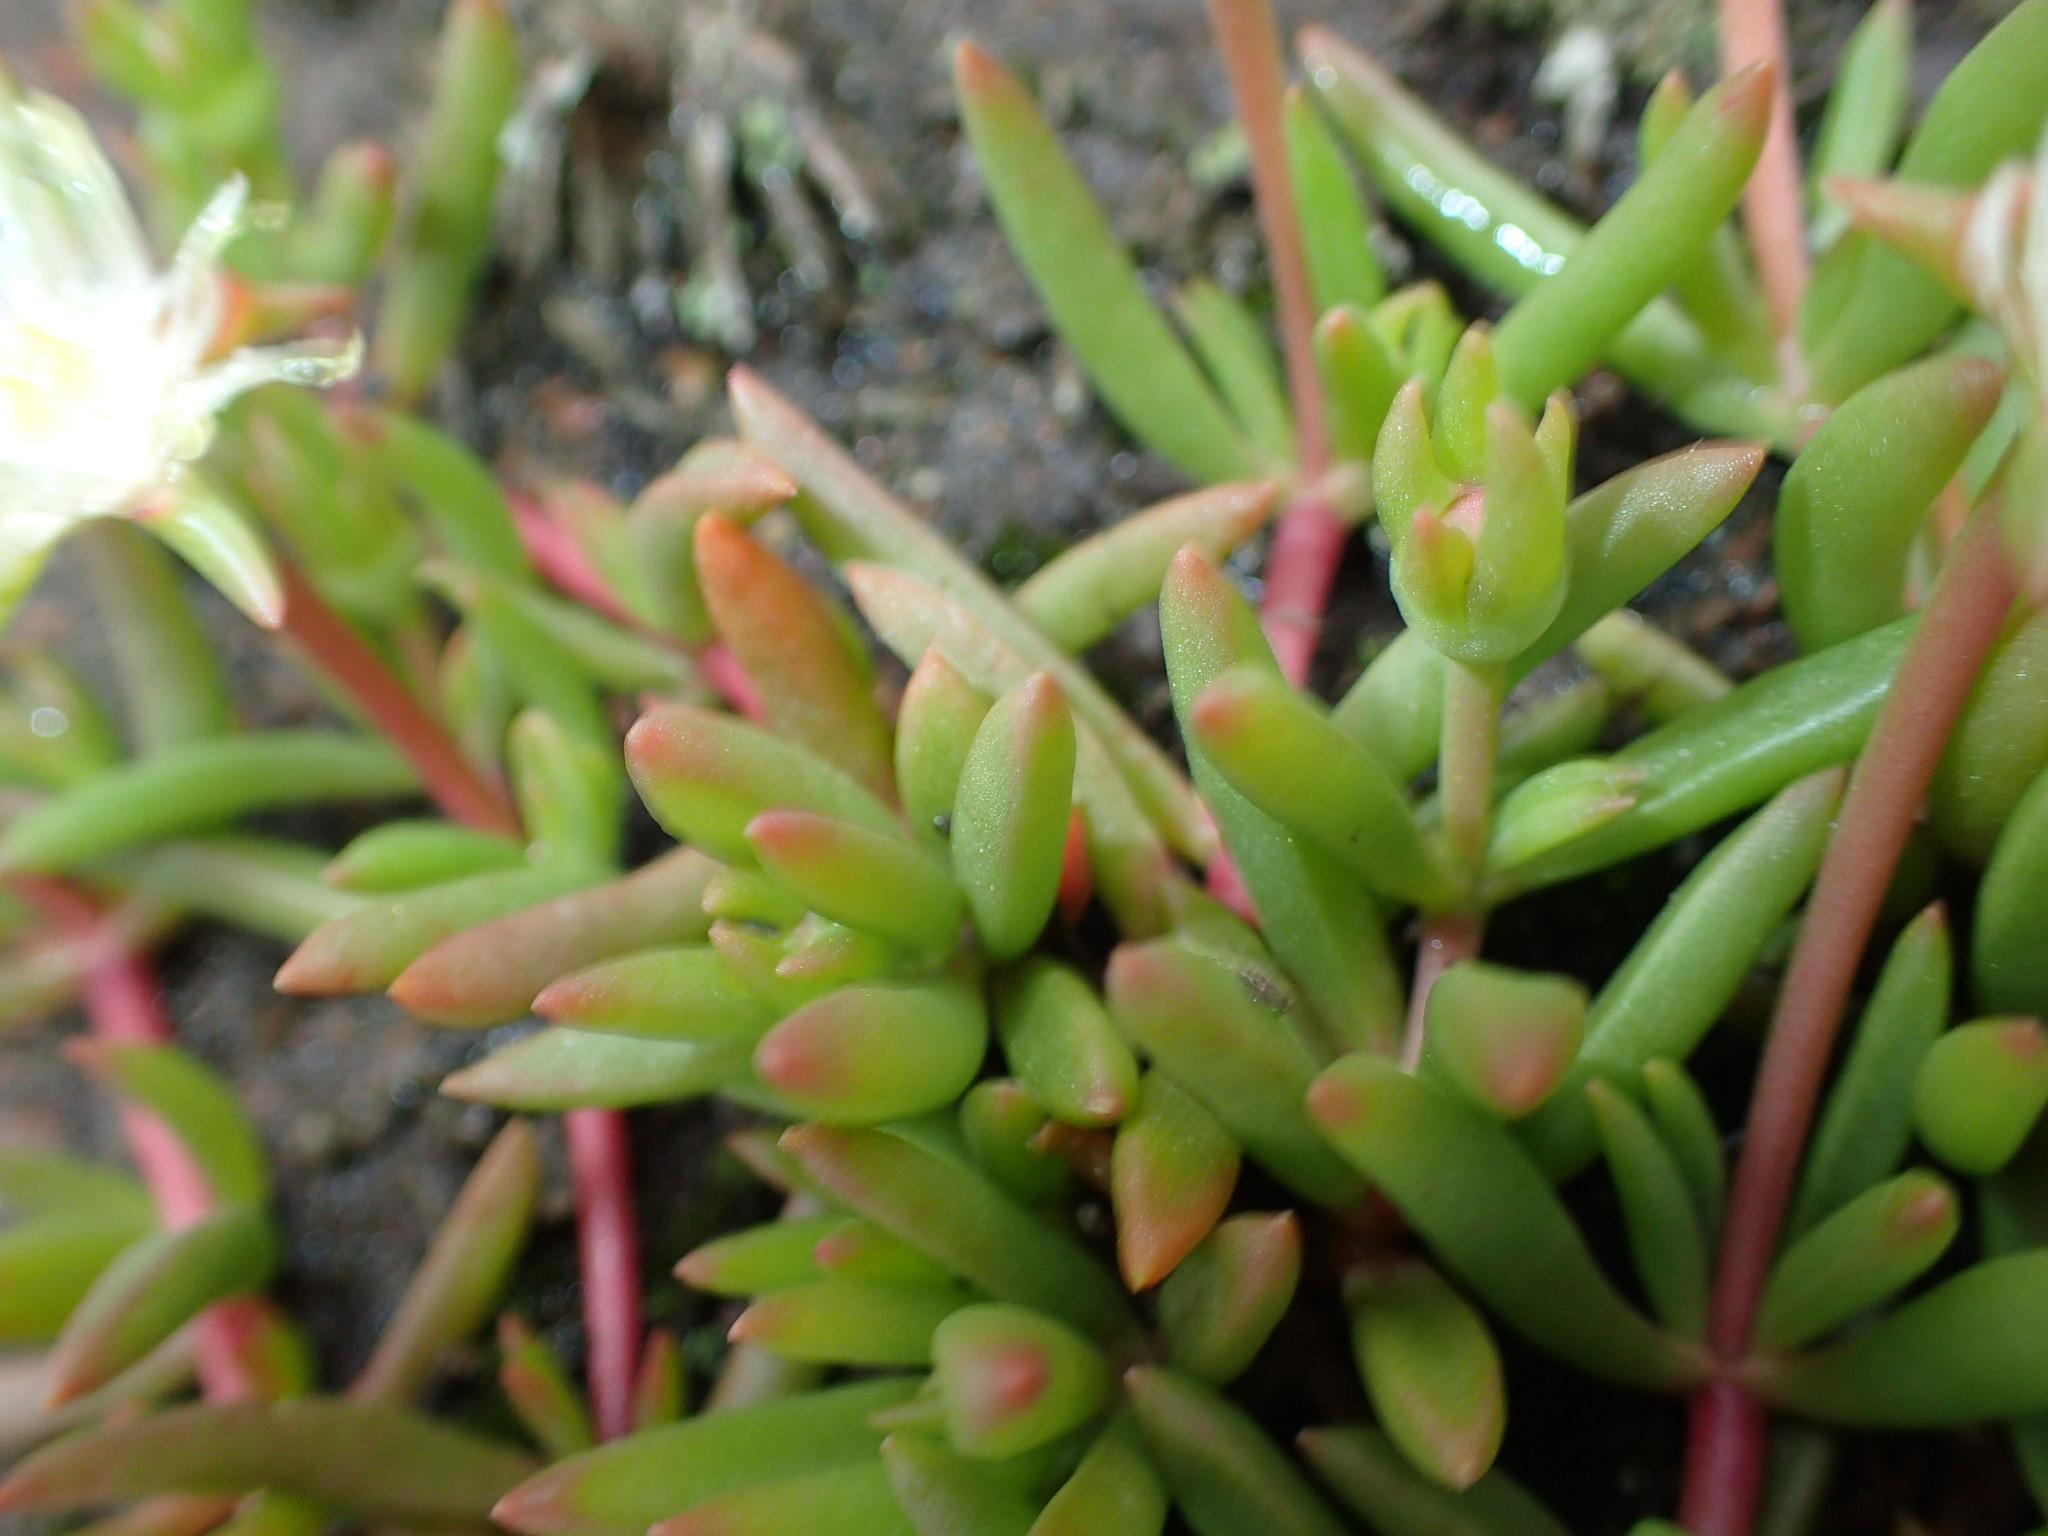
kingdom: Plantae
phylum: Tracheophyta
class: Magnoliopsida
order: Caryophyllales
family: Aizoaceae
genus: Delosperma
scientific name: Delosperma lineare
